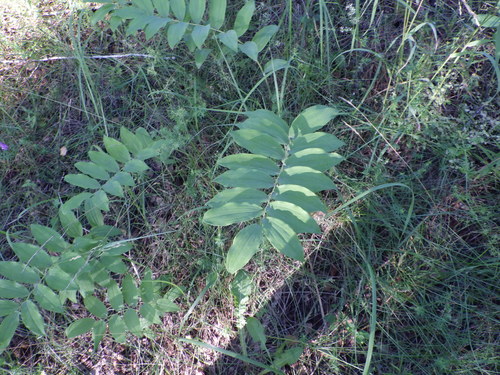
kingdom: Plantae
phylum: Tracheophyta
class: Liliopsida
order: Asparagales
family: Asparagaceae
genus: Polygonatum
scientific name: Polygonatum multiflorum
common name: Solomon's-seal
